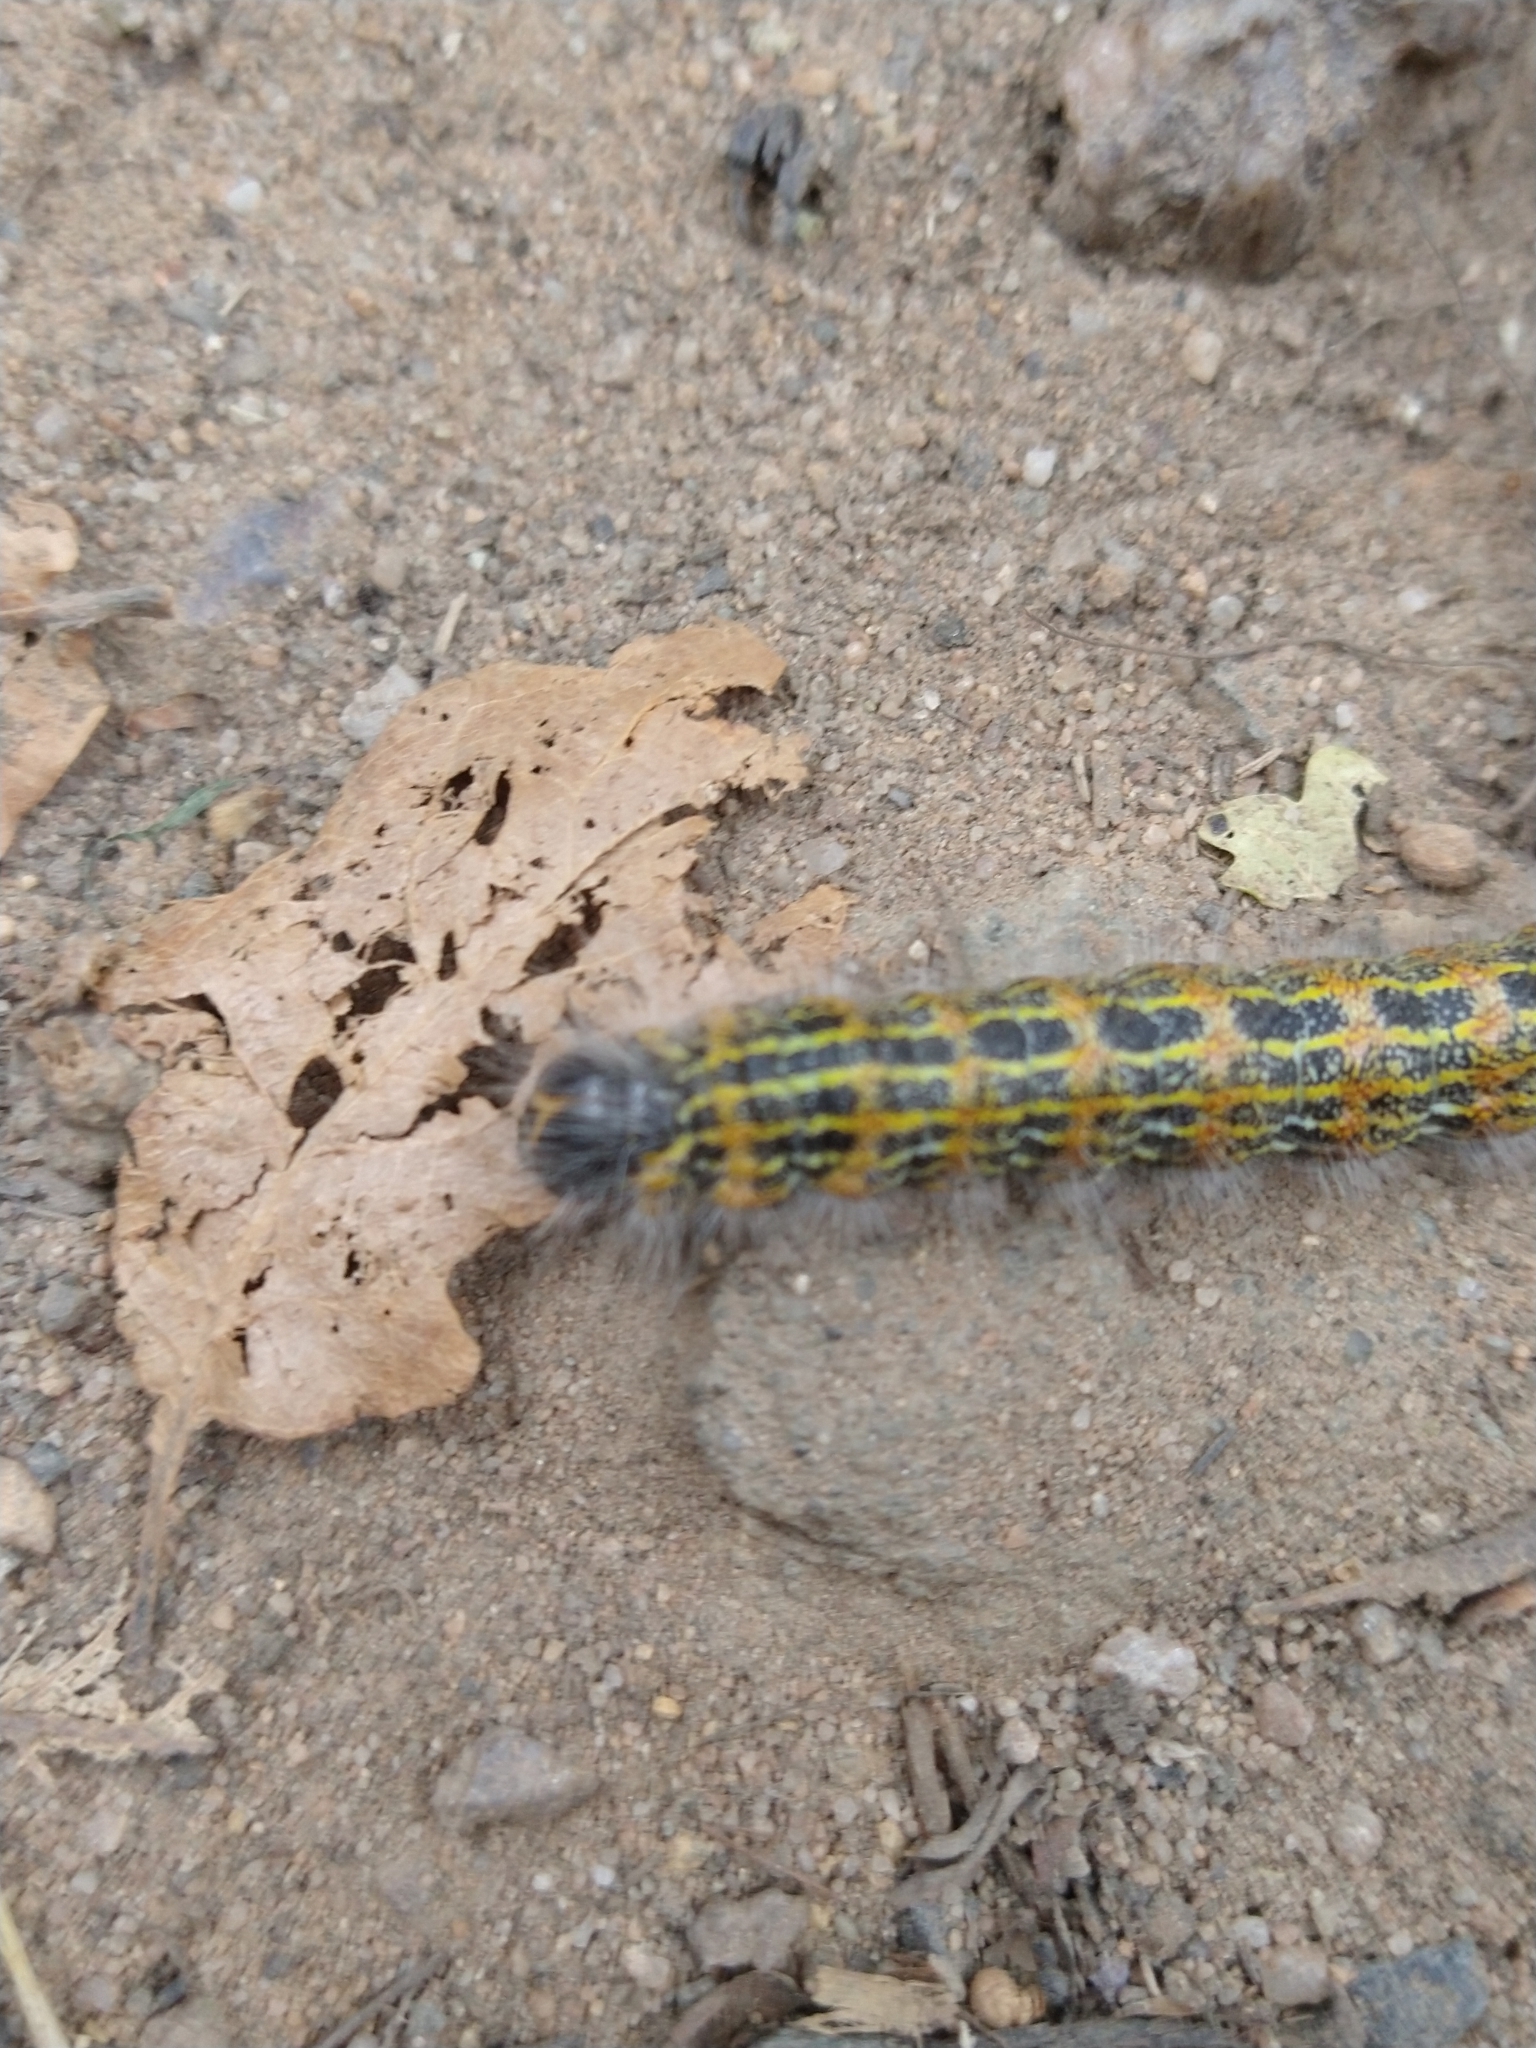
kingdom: Animalia
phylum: Arthropoda
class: Insecta
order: Lepidoptera
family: Notodontidae
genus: Phalera
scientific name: Phalera bucephala
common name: Buff-tip
